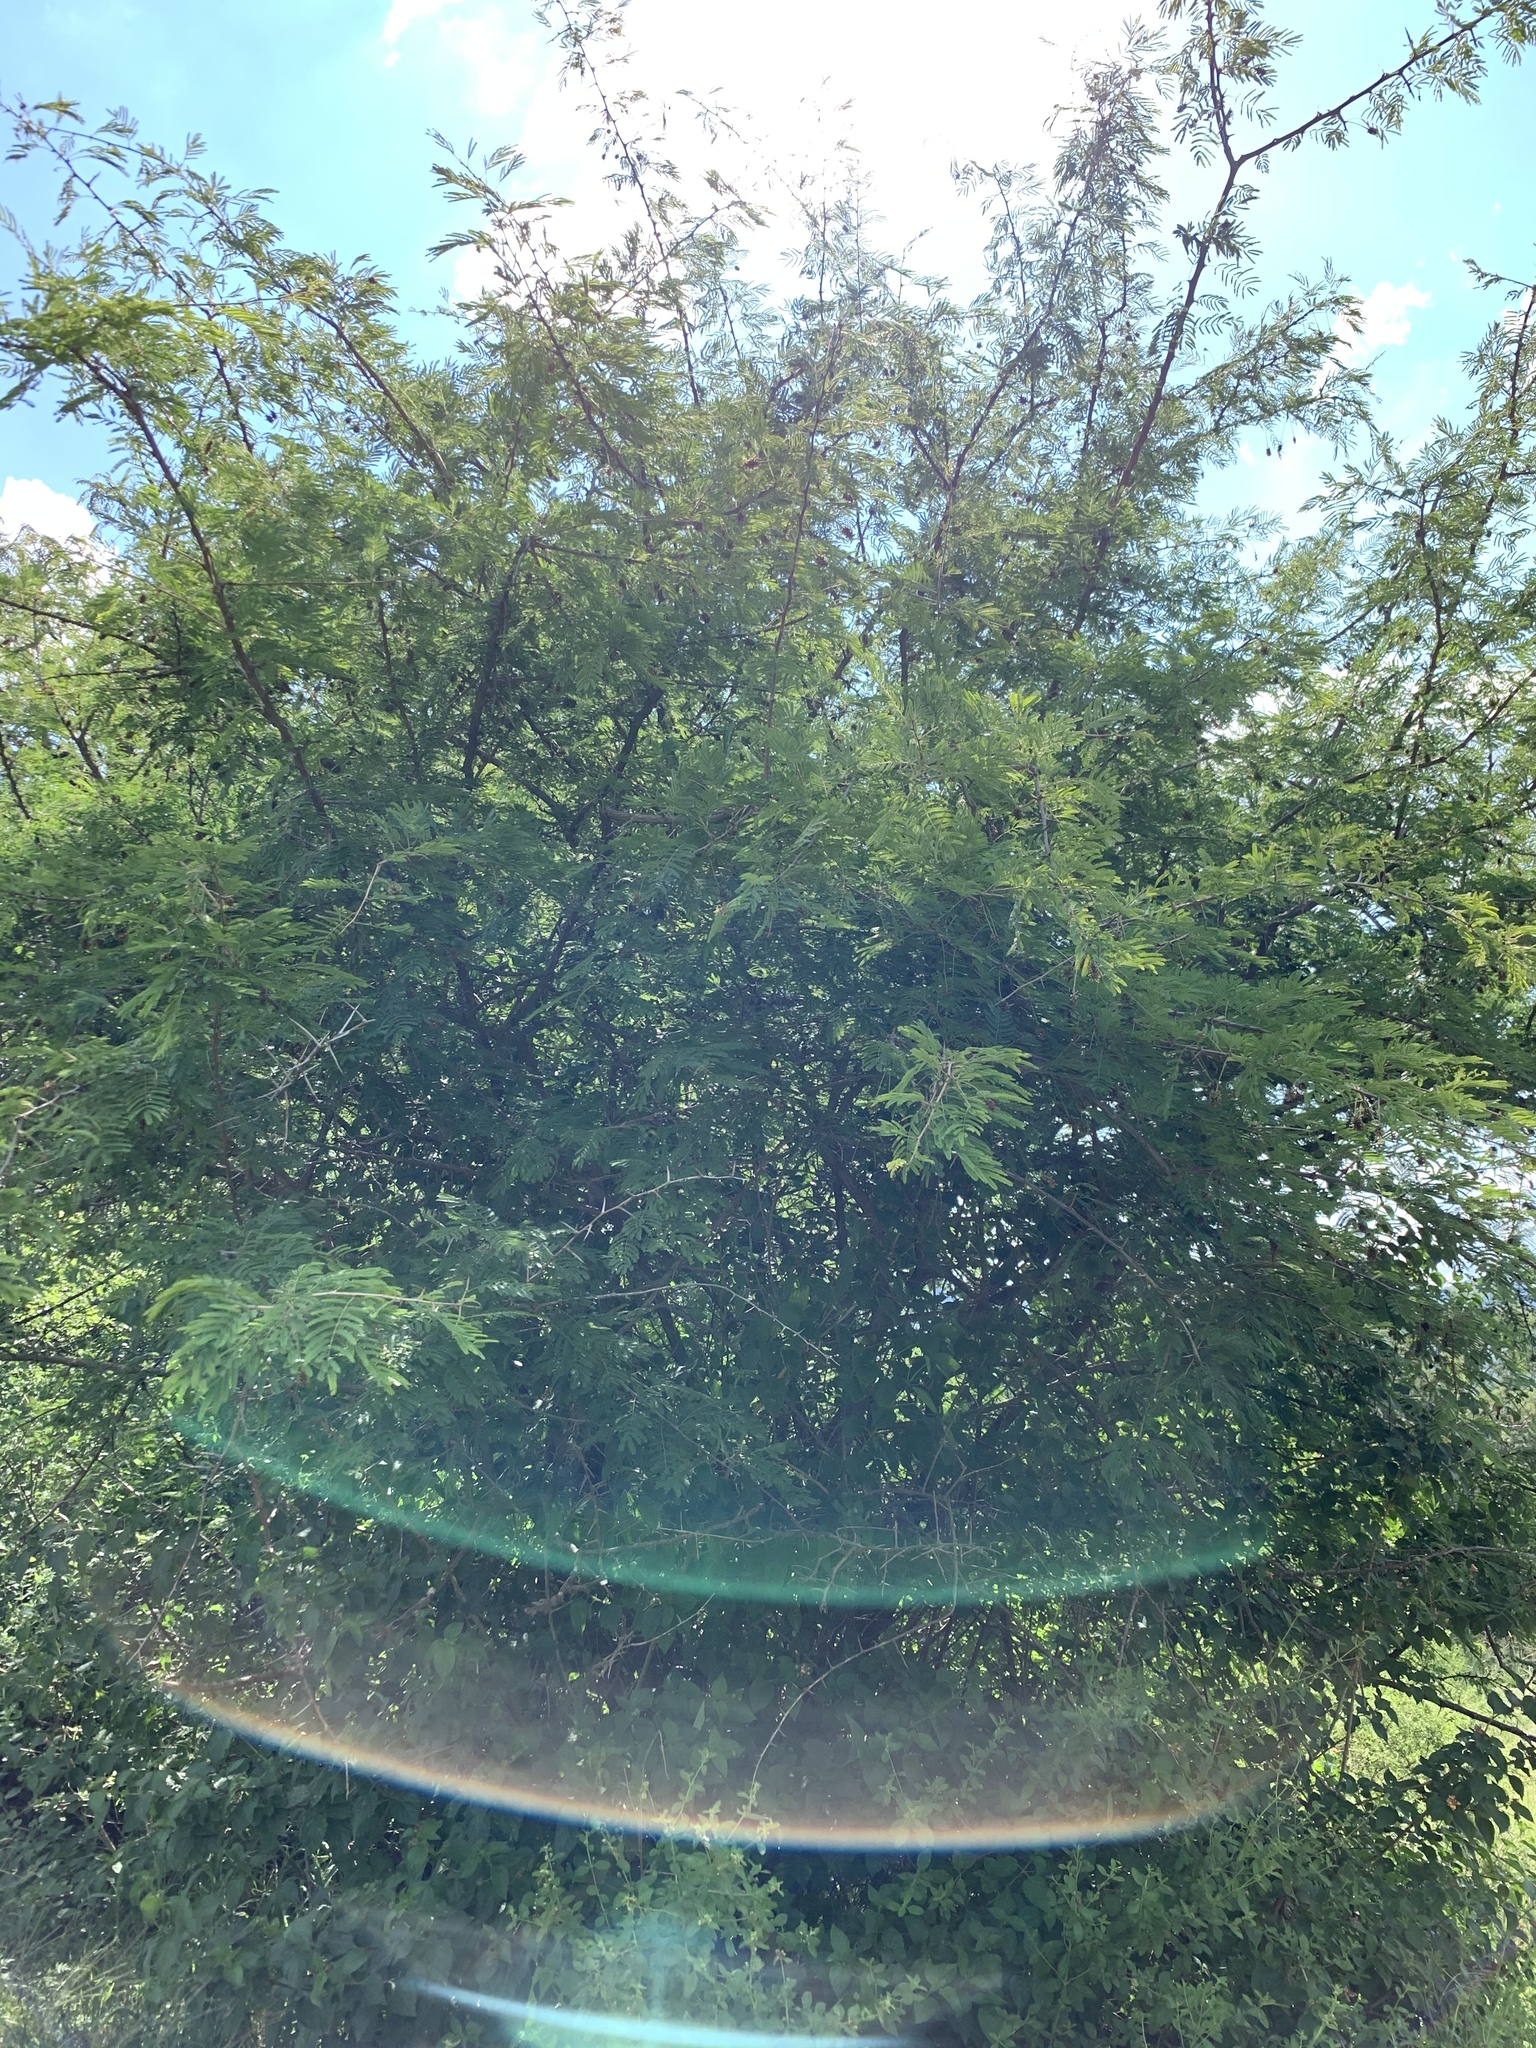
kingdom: Plantae
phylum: Tracheophyta
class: Magnoliopsida
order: Fabales
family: Fabaceae
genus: Dichrostachys
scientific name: Dichrostachys cinerea
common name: Sicklebush
